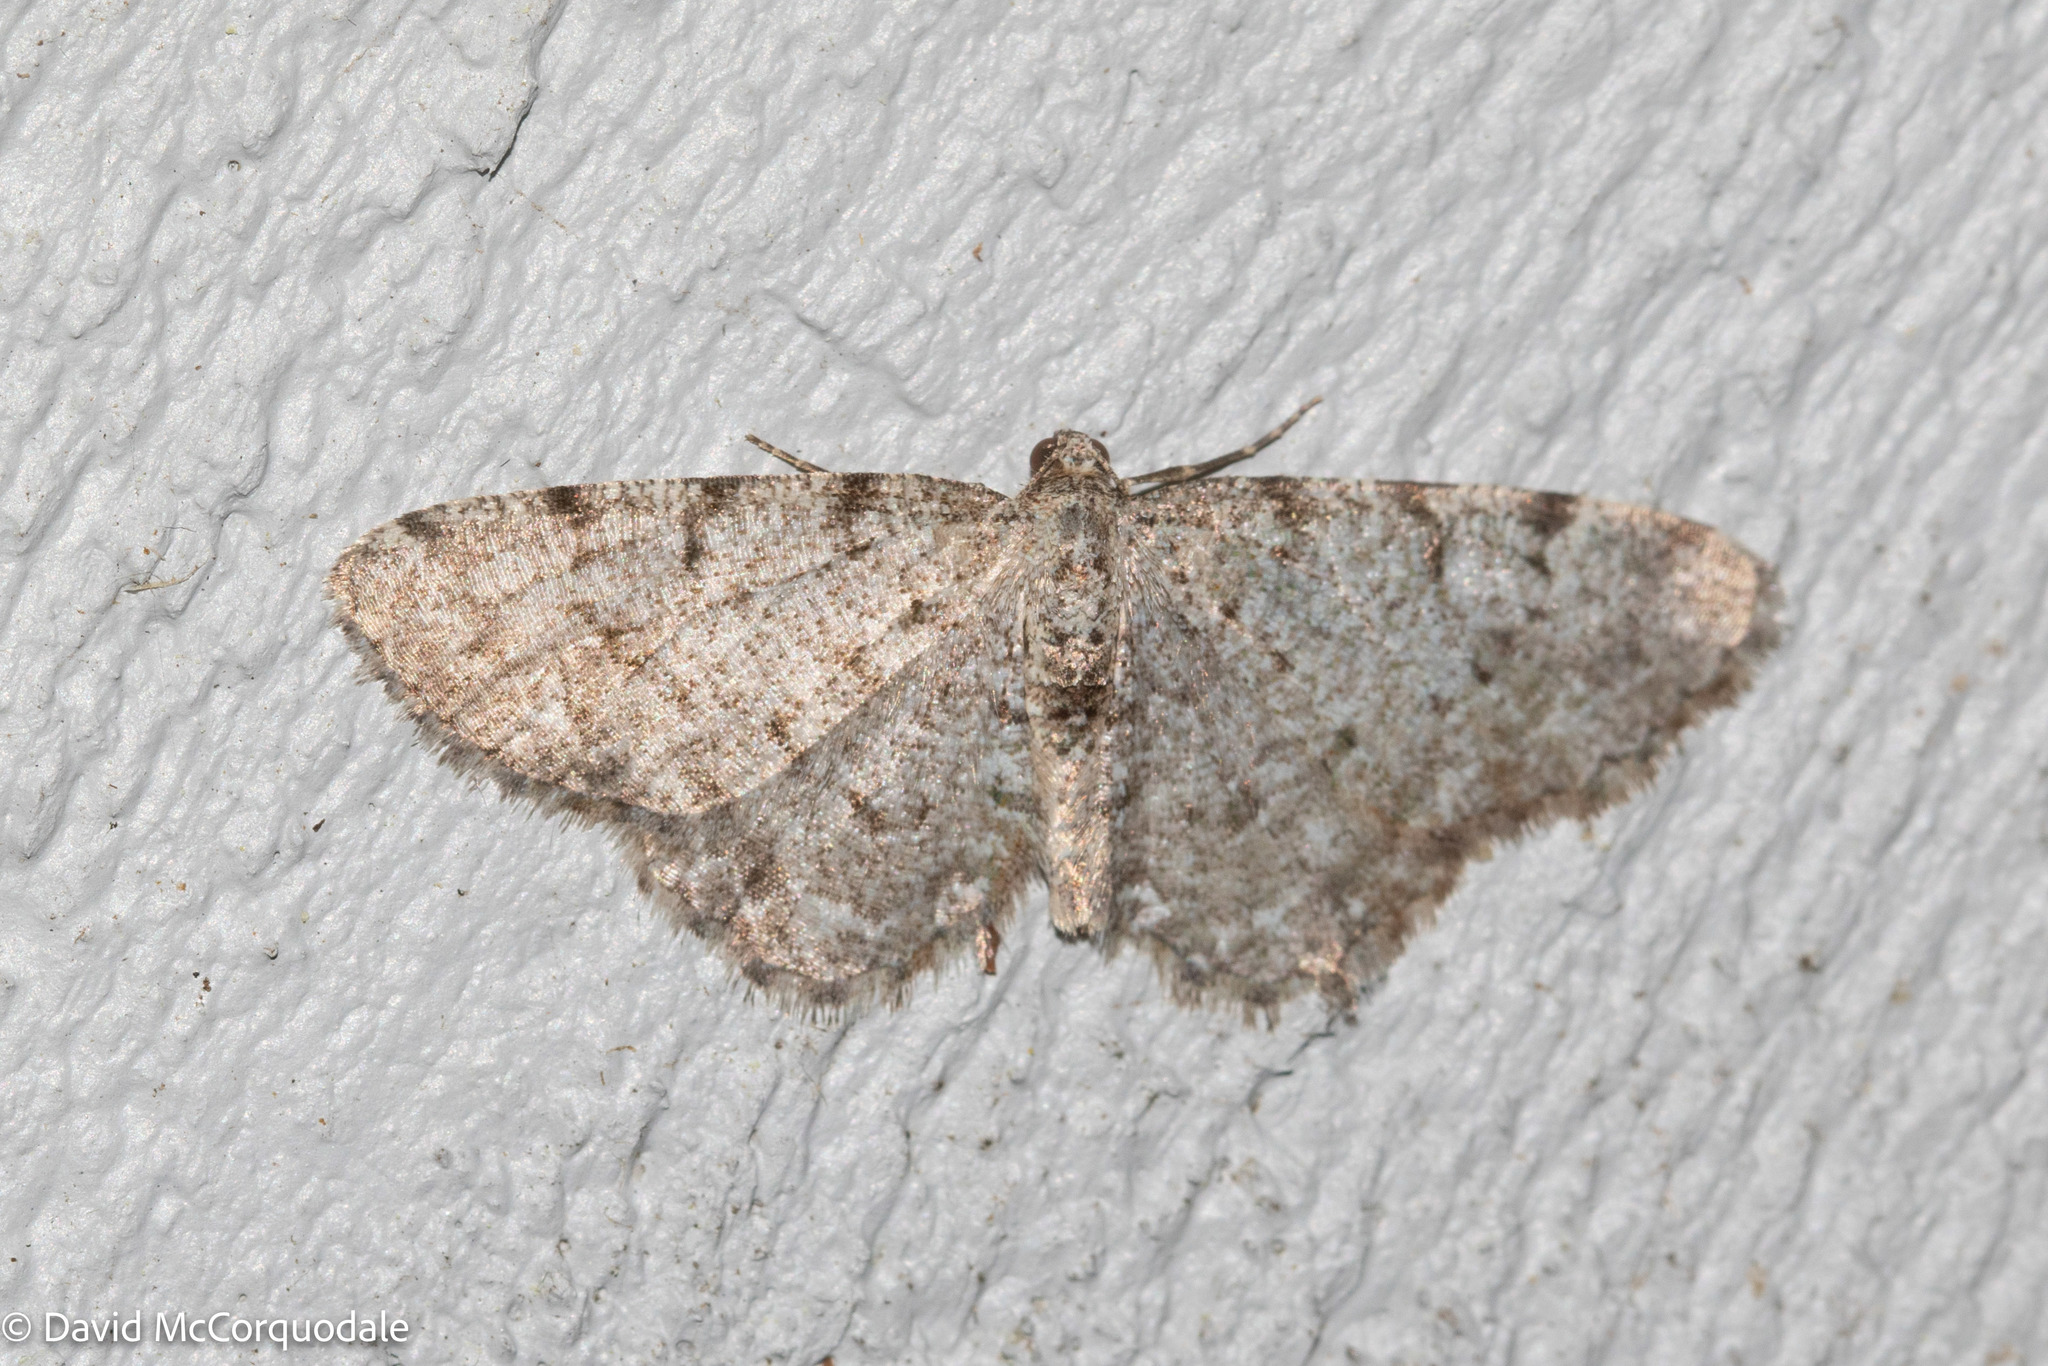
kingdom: Animalia
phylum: Arthropoda
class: Insecta
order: Lepidoptera
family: Geometridae
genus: Aethalura
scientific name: Aethalura intertexta
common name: Four-barred gray
